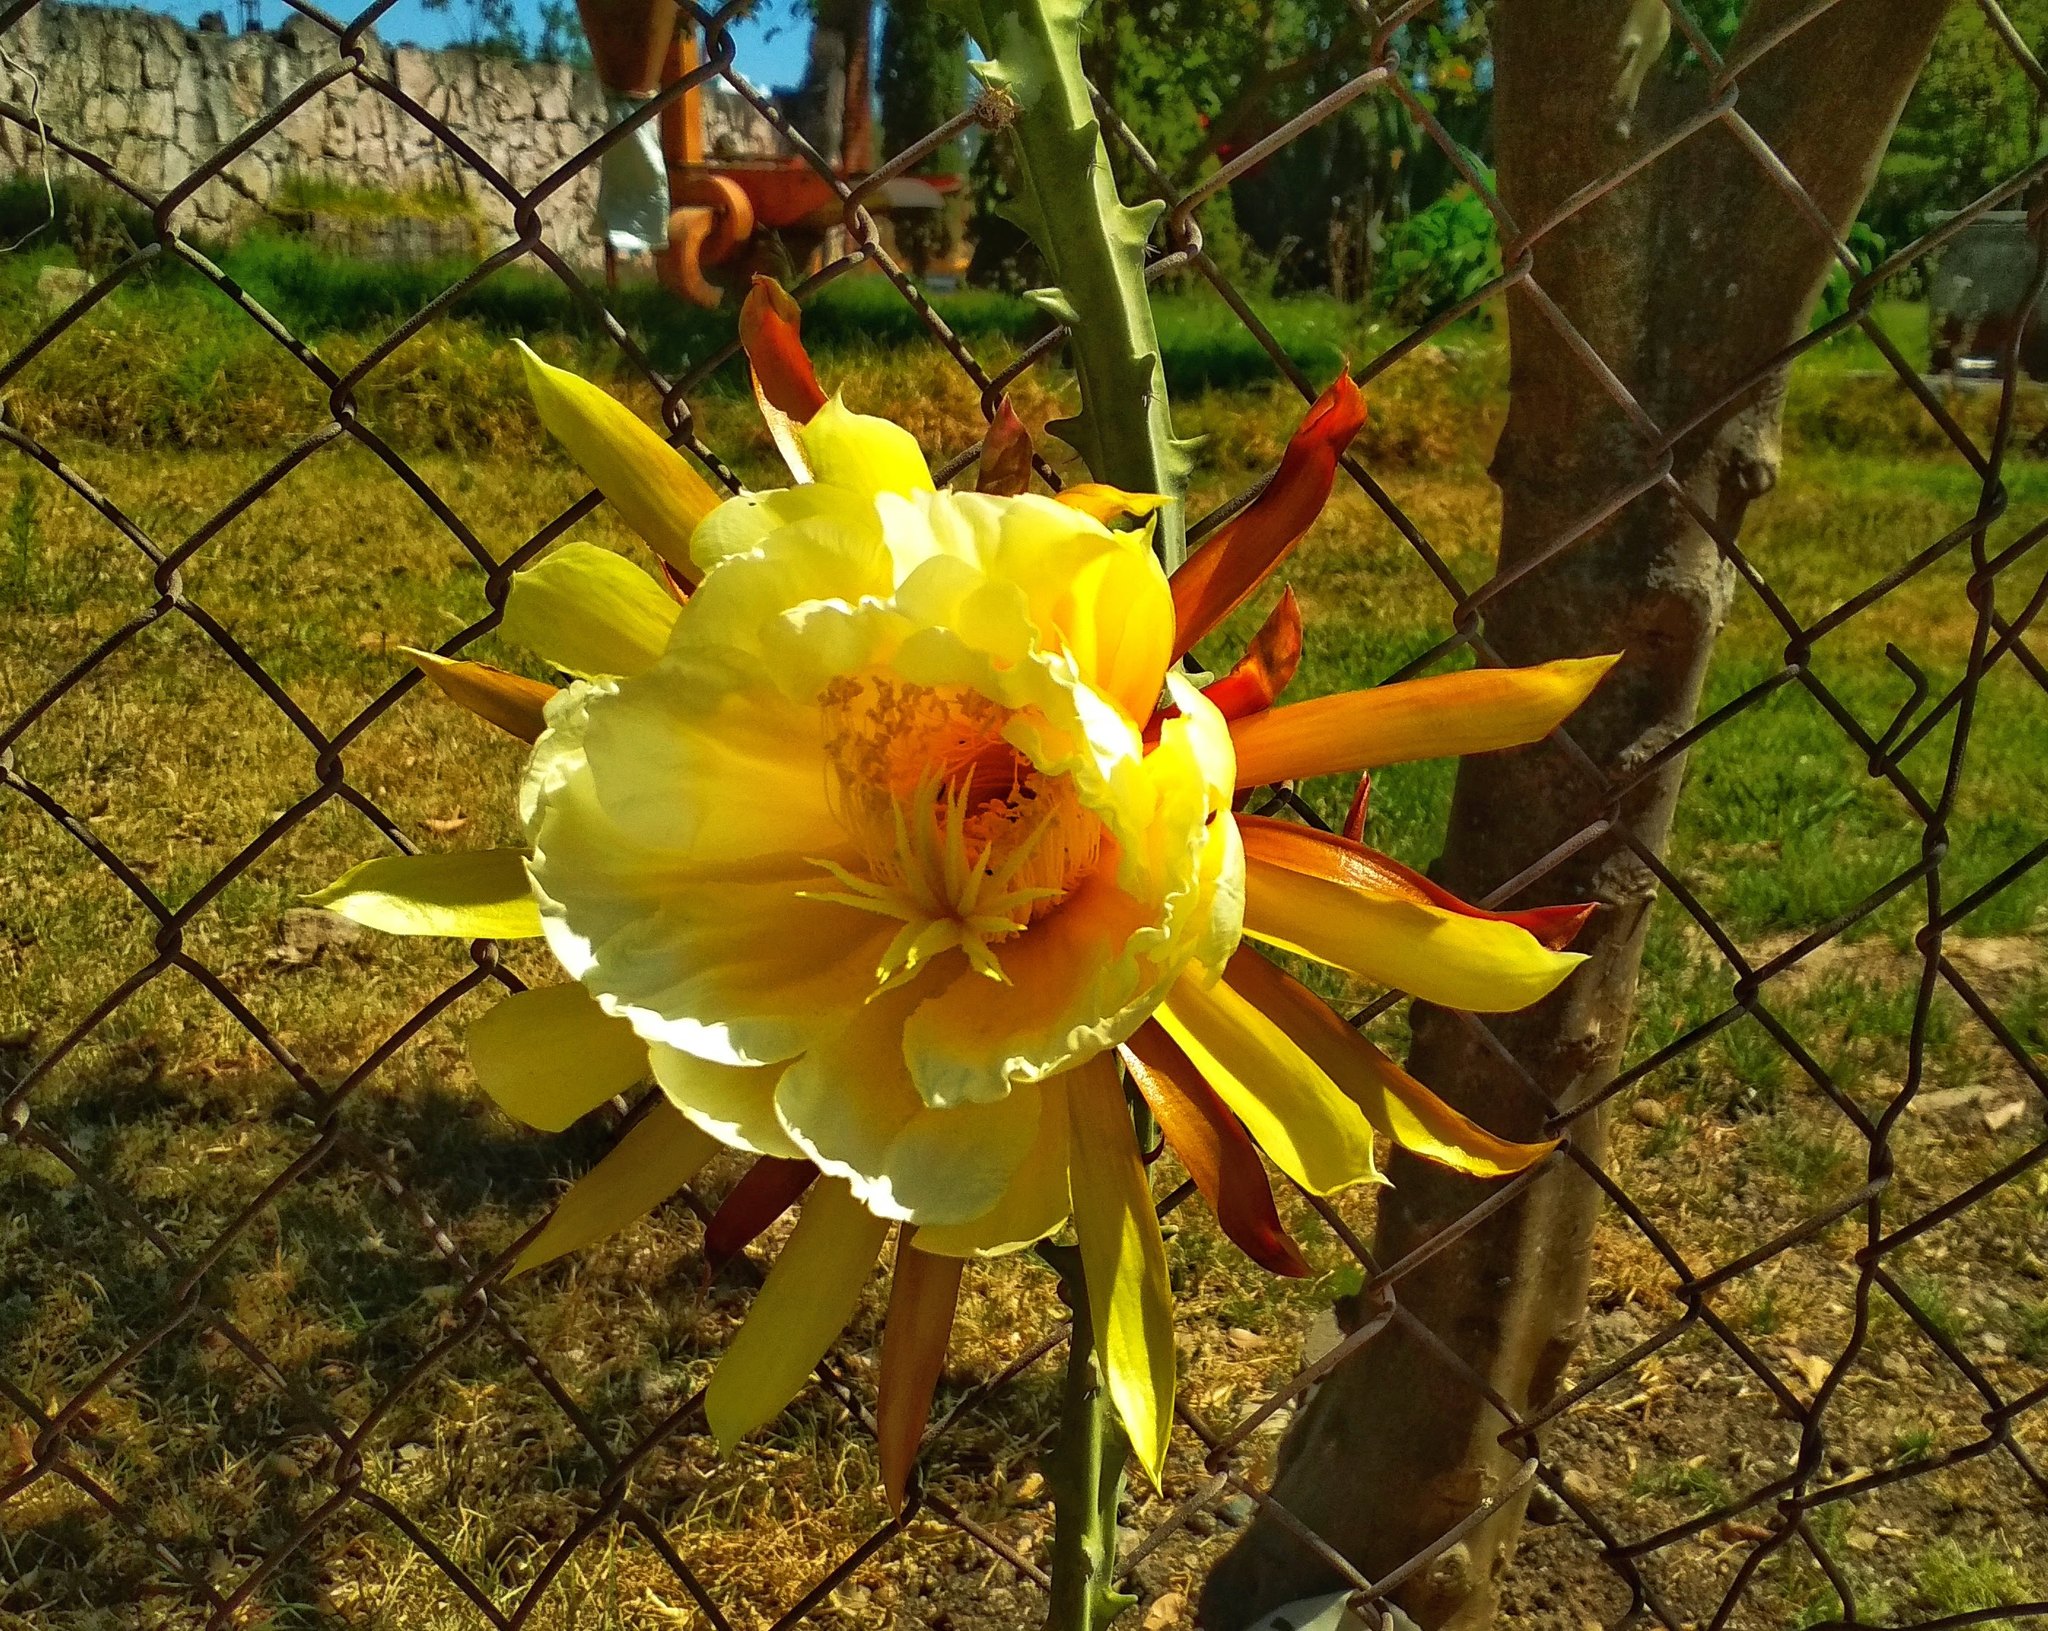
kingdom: Plantae
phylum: Tracheophyta
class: Magnoliopsida
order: Caryophyllales
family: Cactaceae
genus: Selenicereus
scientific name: Selenicereus hamatus
